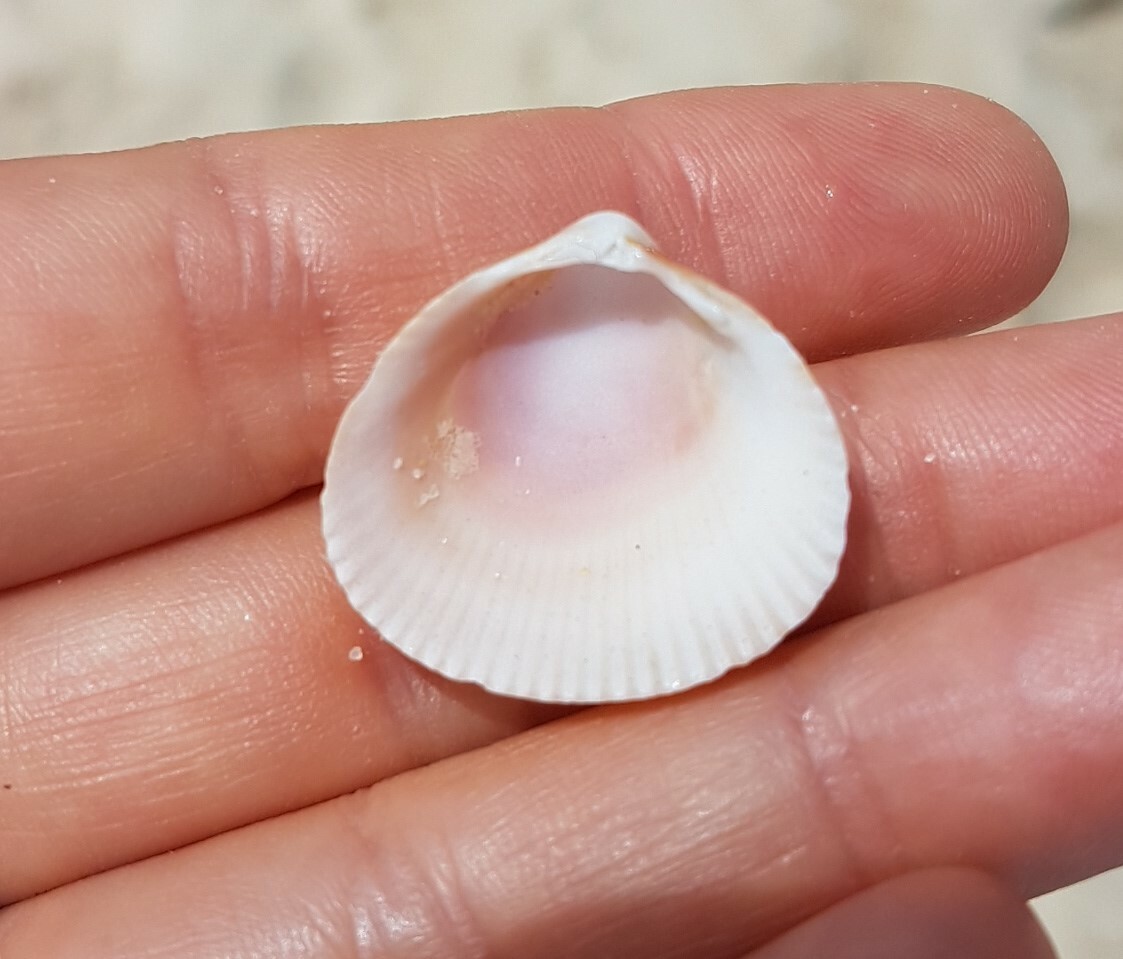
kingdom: Animalia
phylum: Mollusca
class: Bivalvia
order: Cardiida
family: Cardiidae
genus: Laevicardium
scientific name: Laevicardium crassum
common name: Norway cockle
